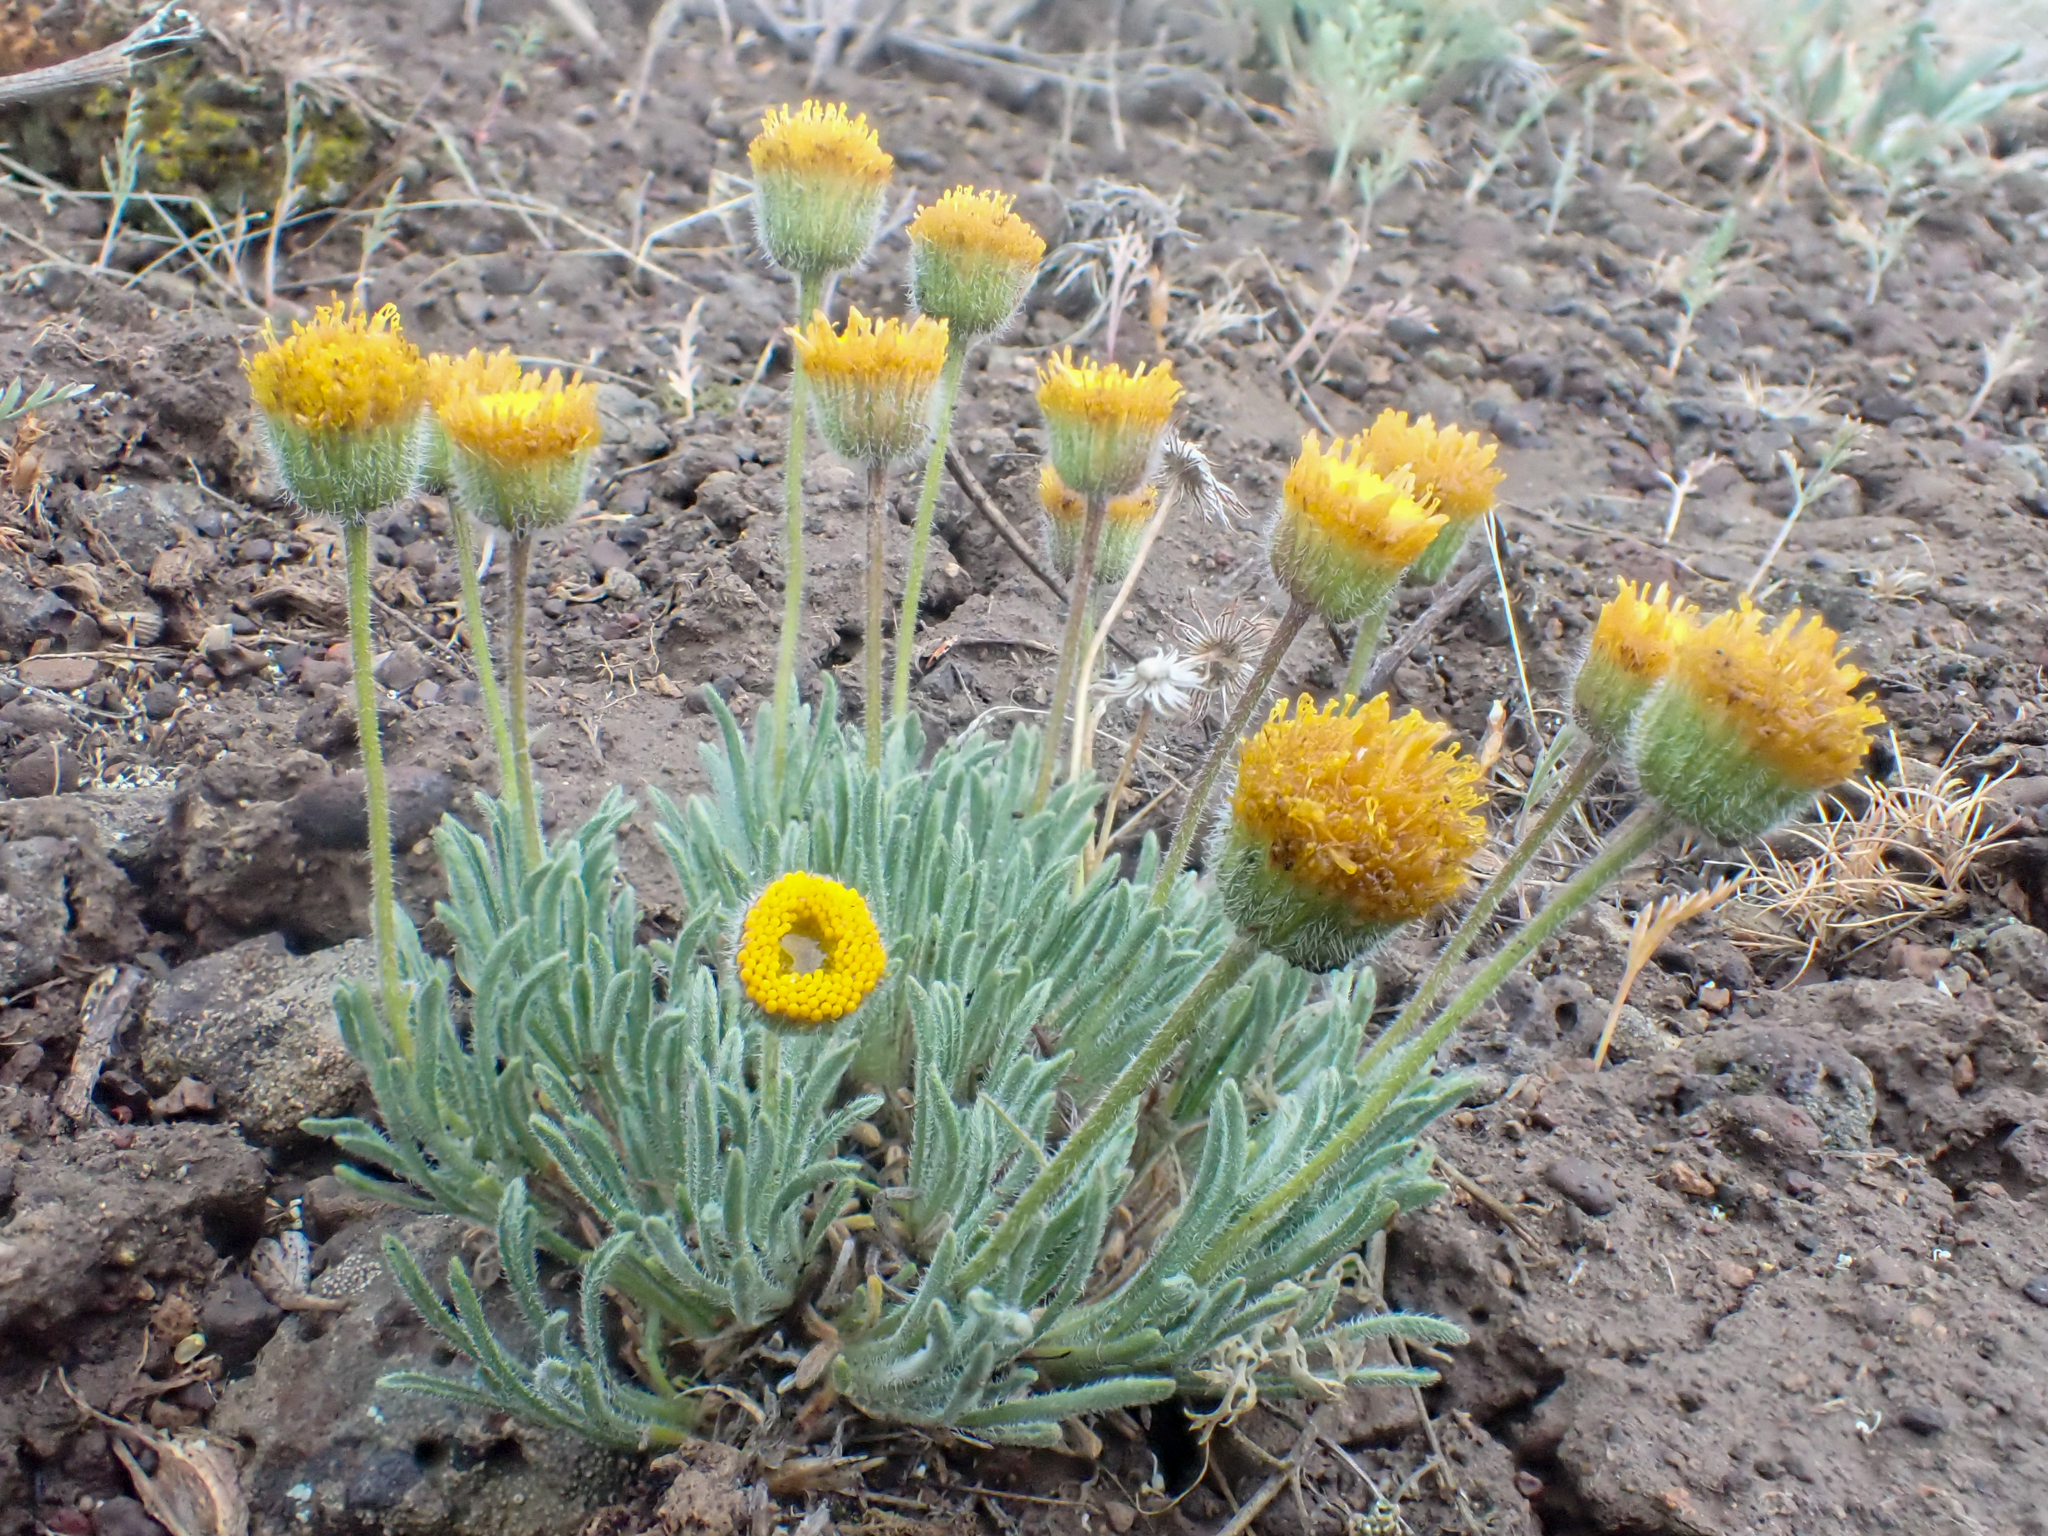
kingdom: Plantae
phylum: Tracheophyta
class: Magnoliopsida
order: Asterales
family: Asteraceae
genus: Erigeron
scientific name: Erigeron chrysopsidis
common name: Dwarf yellow fleabane
